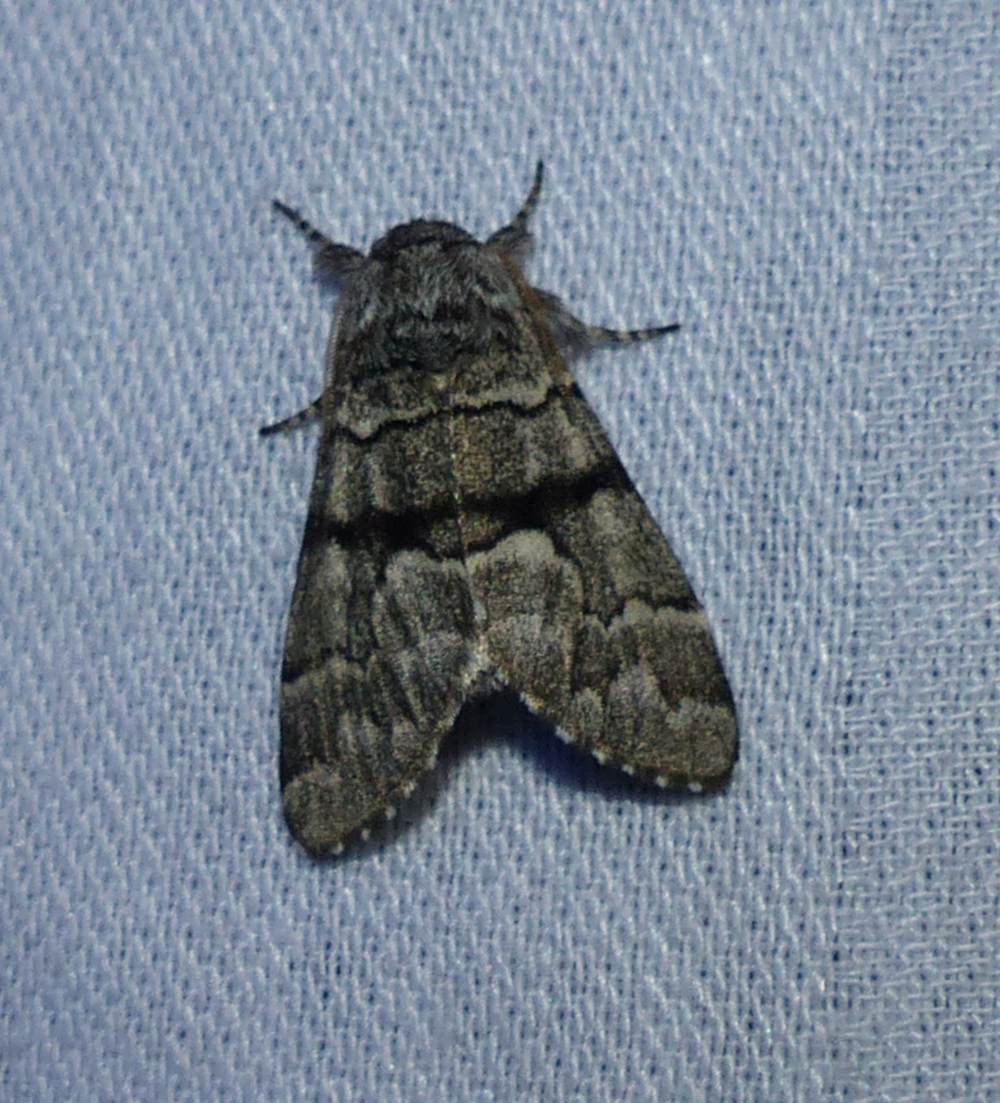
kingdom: Animalia
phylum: Arthropoda
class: Insecta
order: Lepidoptera
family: Noctuidae
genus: Panthea
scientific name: Panthea furcilla
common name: Eastern panthea moth
